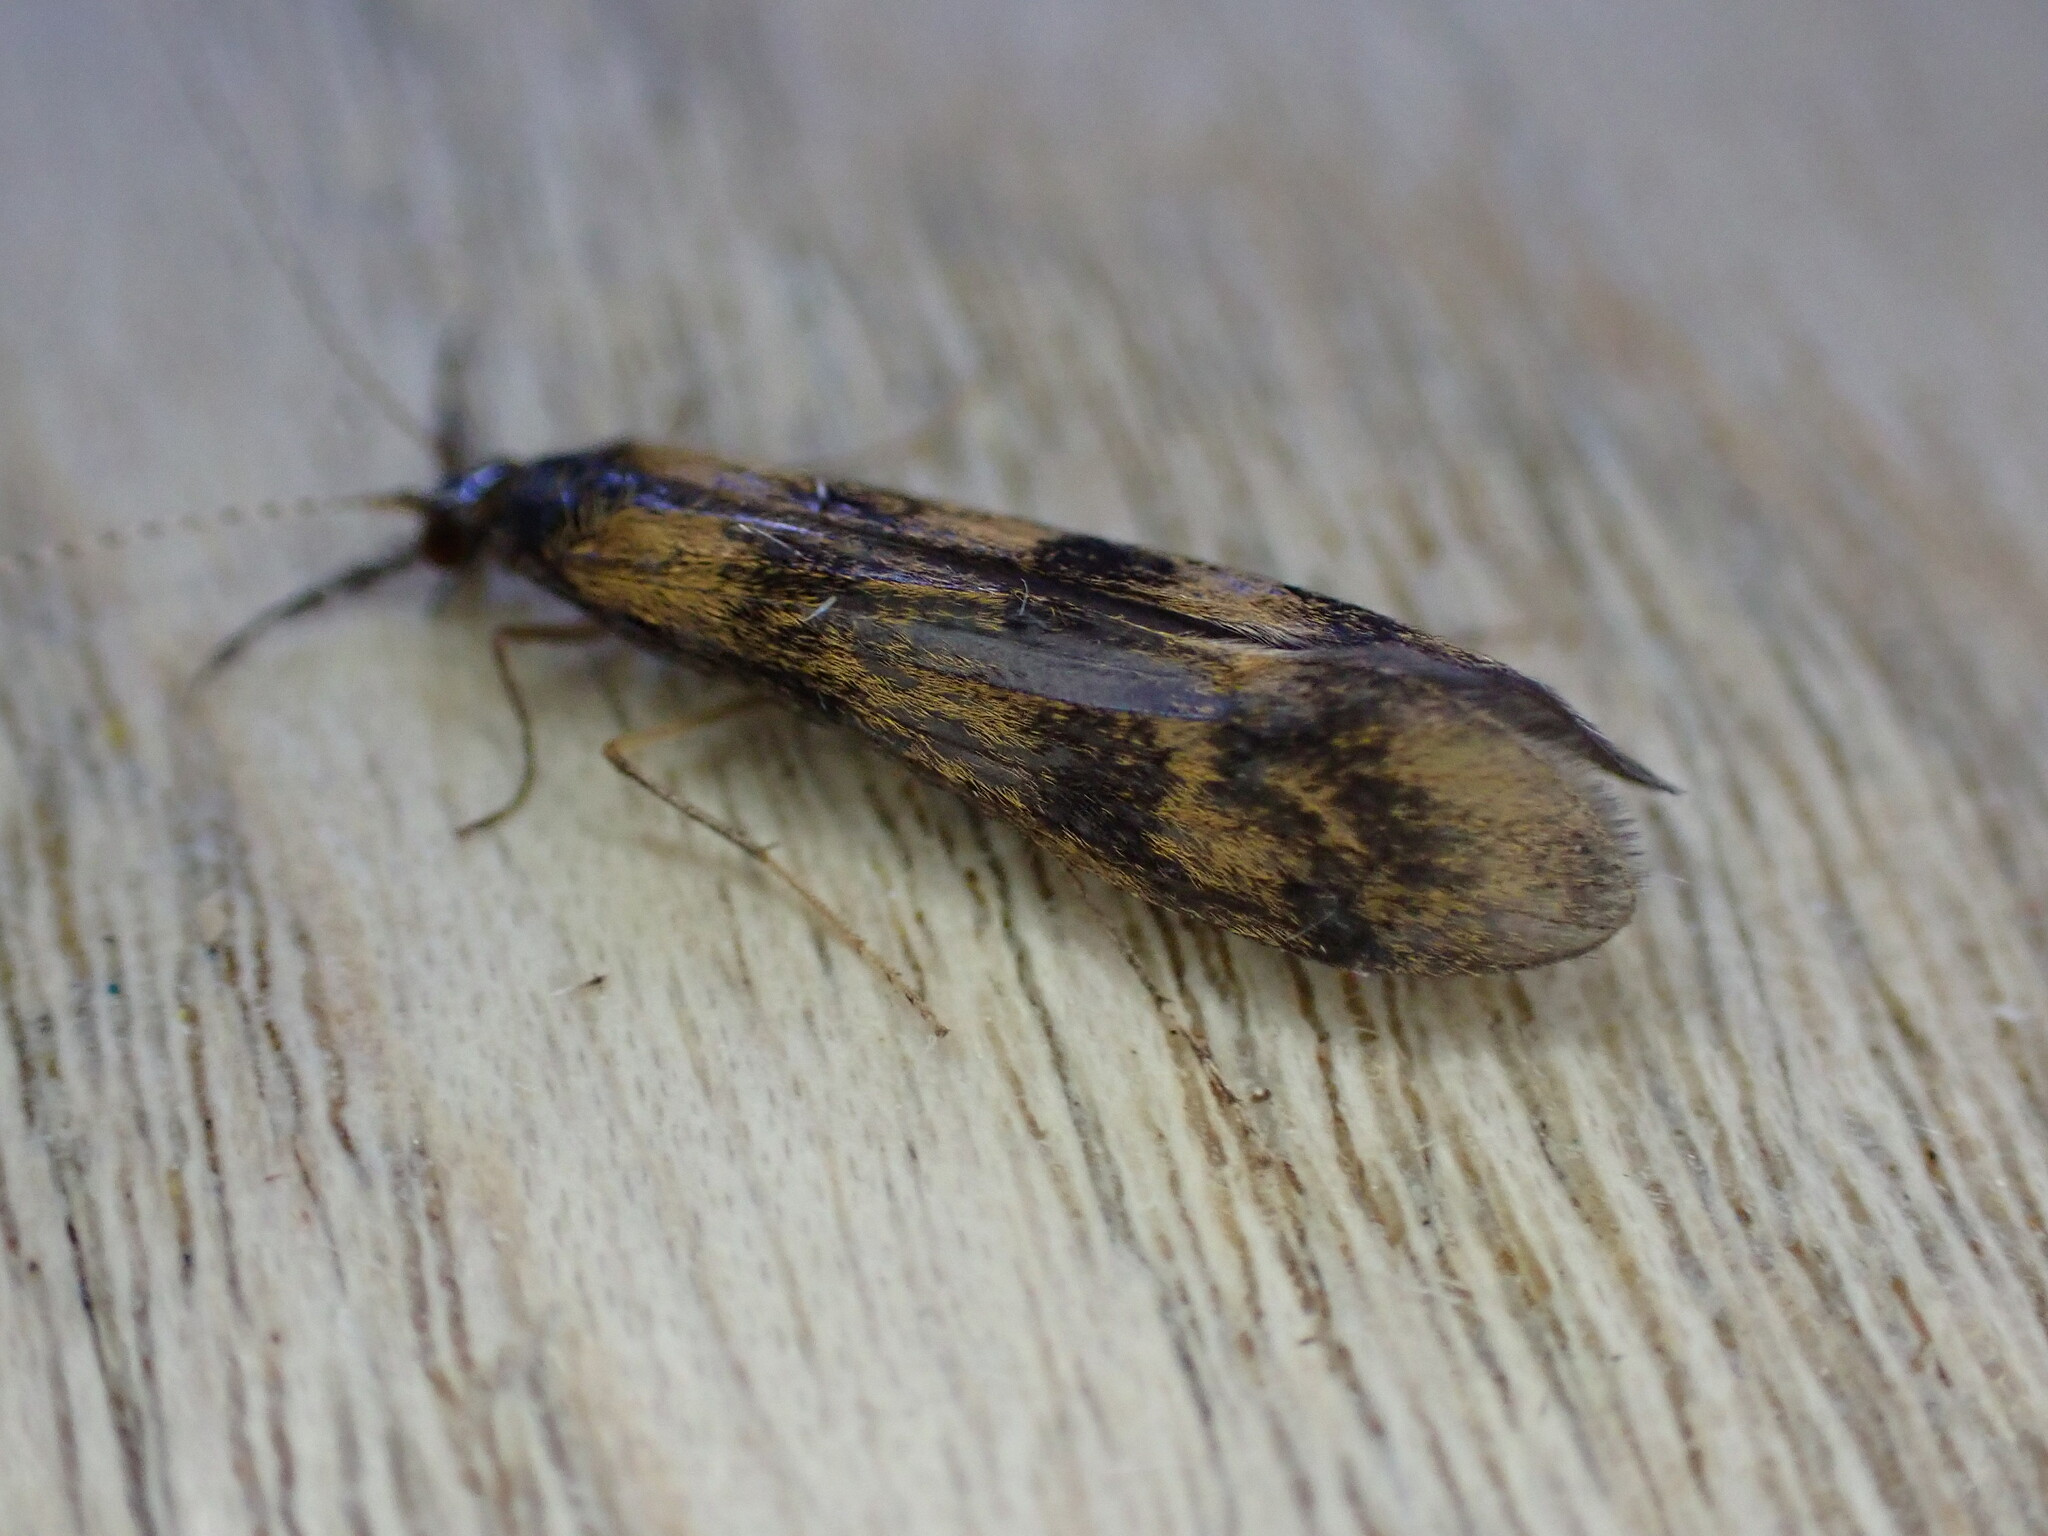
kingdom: Animalia
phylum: Arthropoda
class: Insecta
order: Trichoptera
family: Leptoceridae
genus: Mystacides
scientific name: Mystacides longicornis
